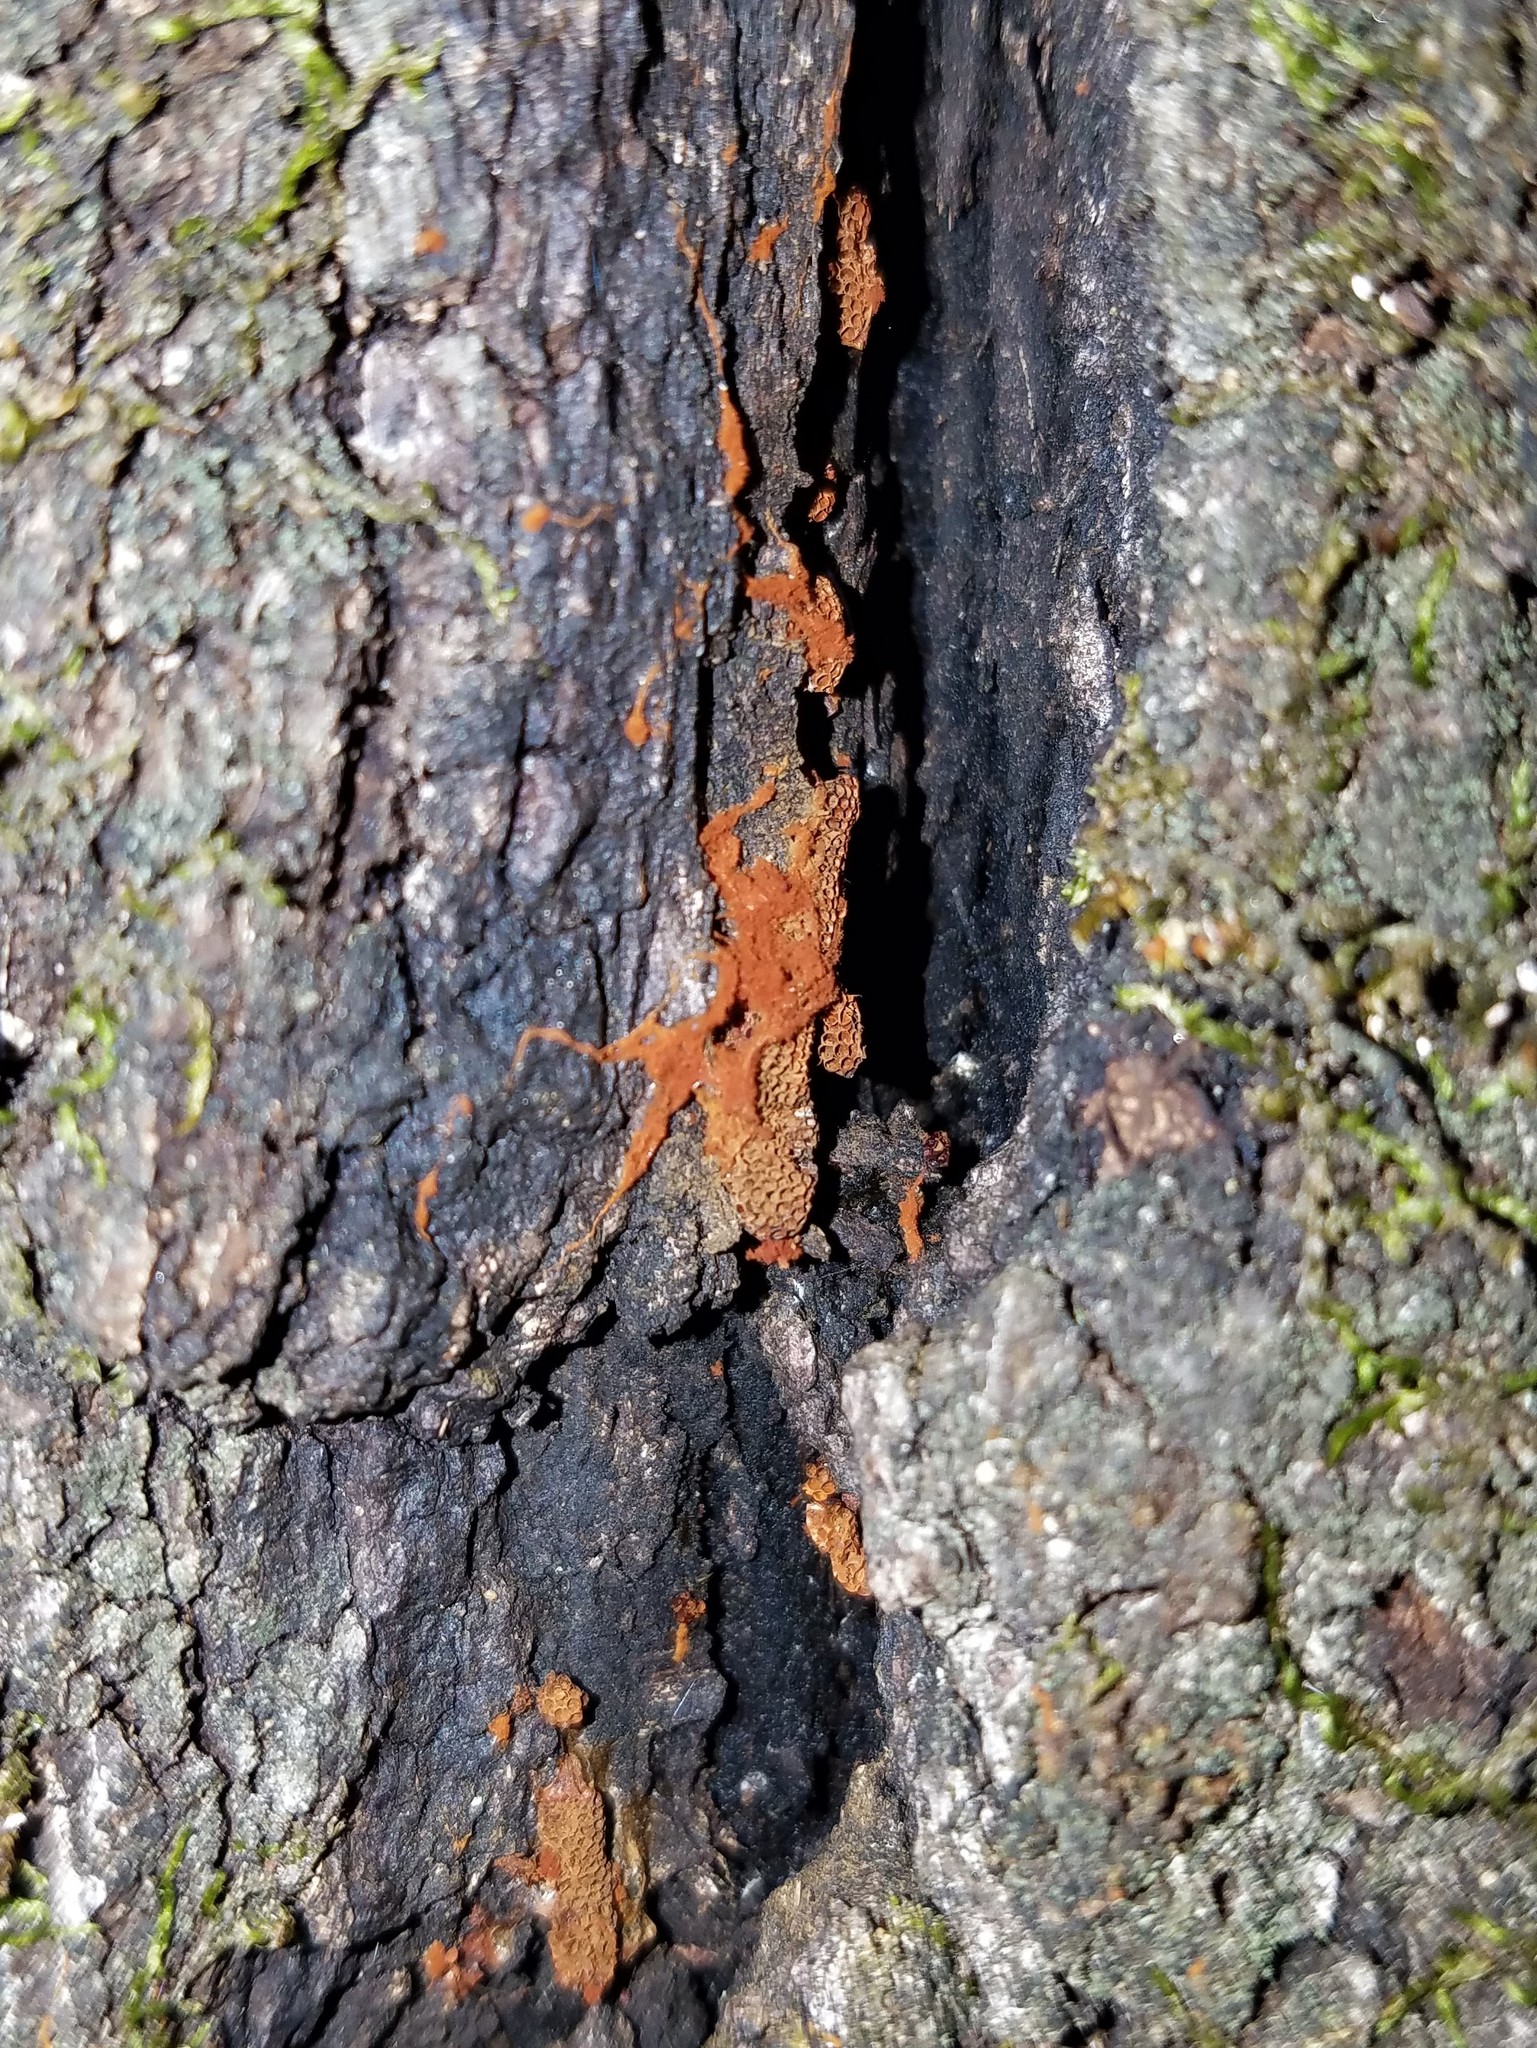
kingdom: Protozoa
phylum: Mycetozoa
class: Myxomycetes
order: Trichiales
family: Trichiaceae
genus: Metatrichia
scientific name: Metatrichia vesparia
